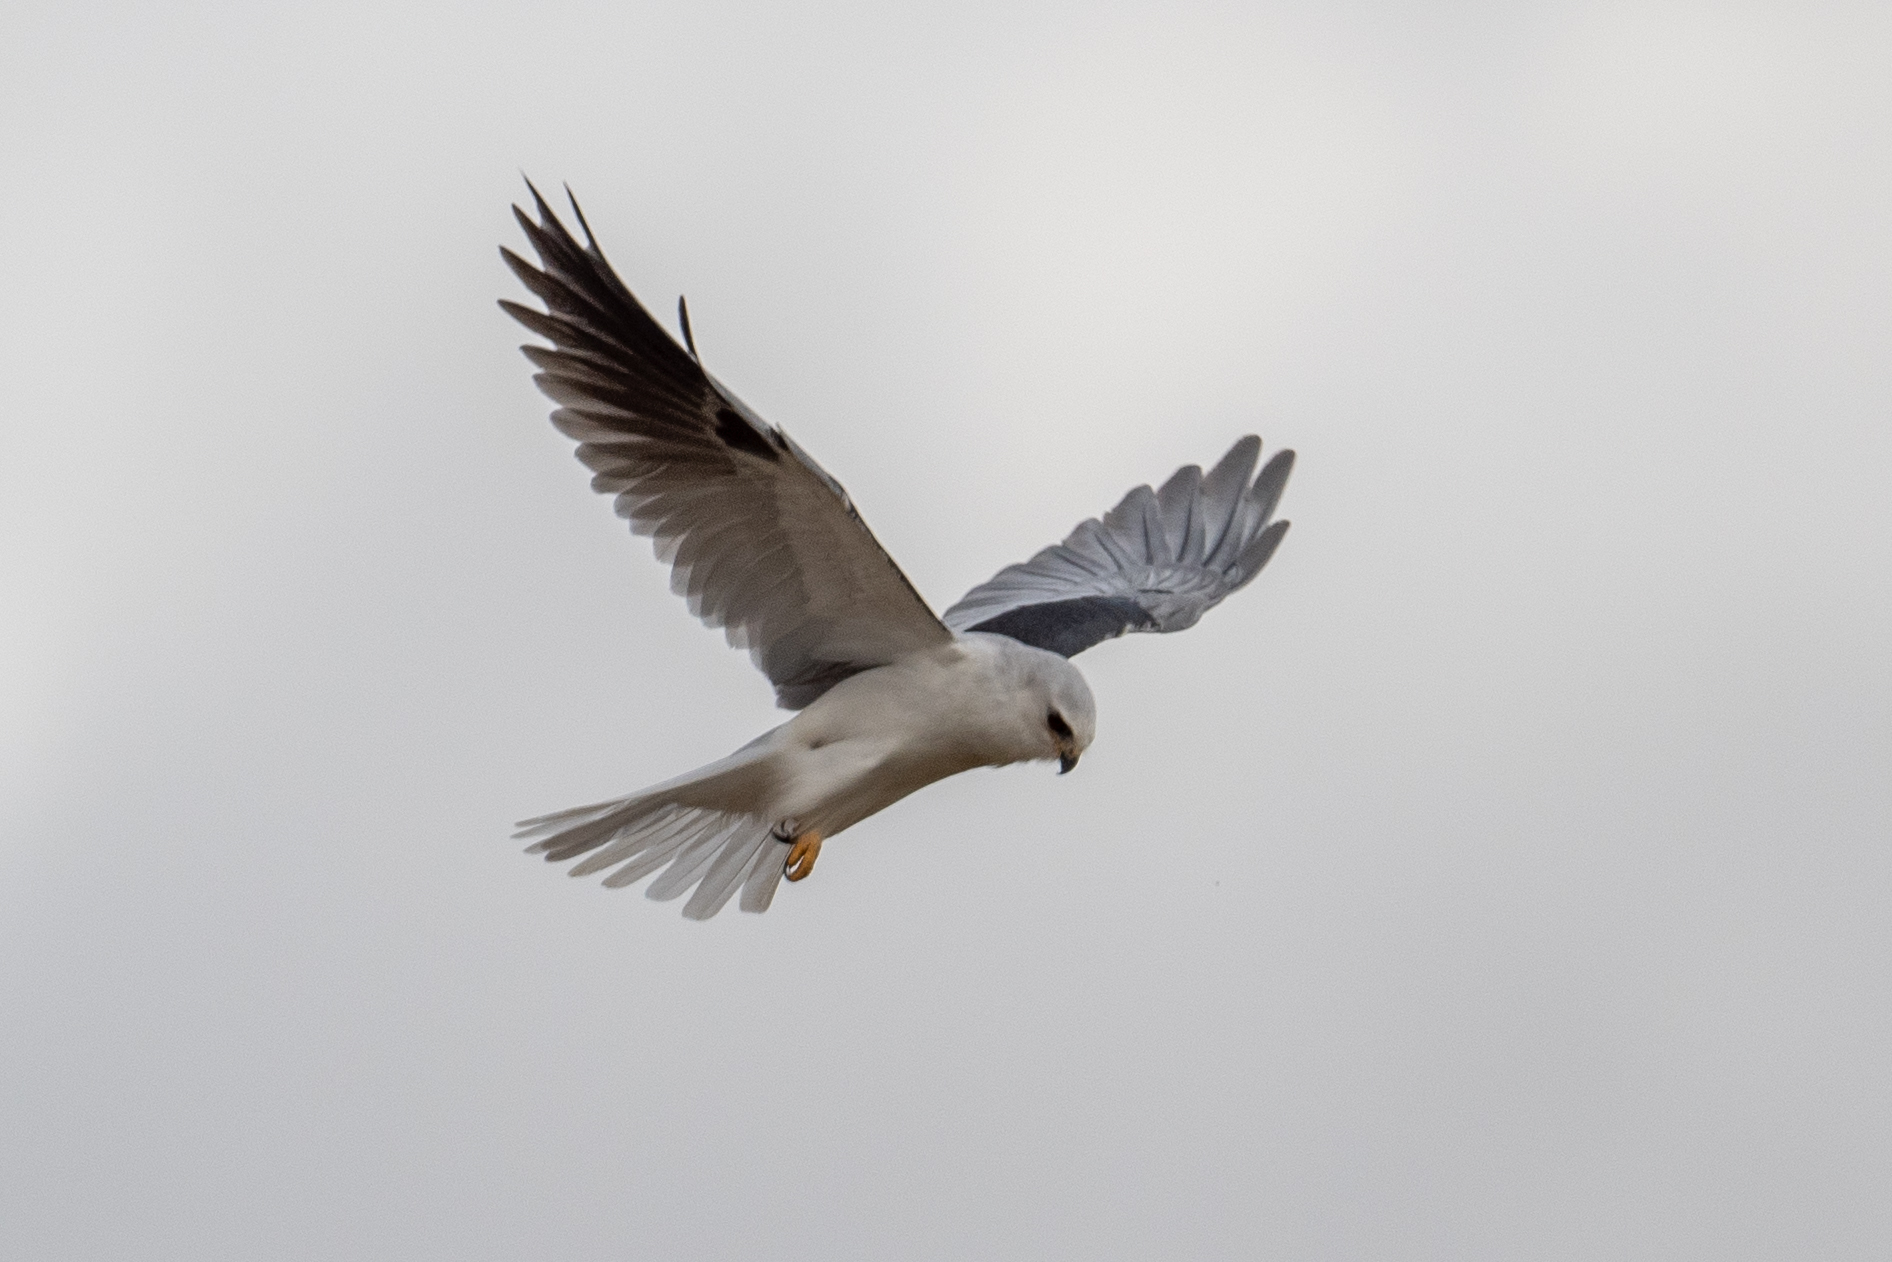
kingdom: Animalia
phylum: Chordata
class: Aves
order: Accipitriformes
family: Accipitridae
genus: Elanus
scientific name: Elanus leucurus
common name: White-tailed kite
